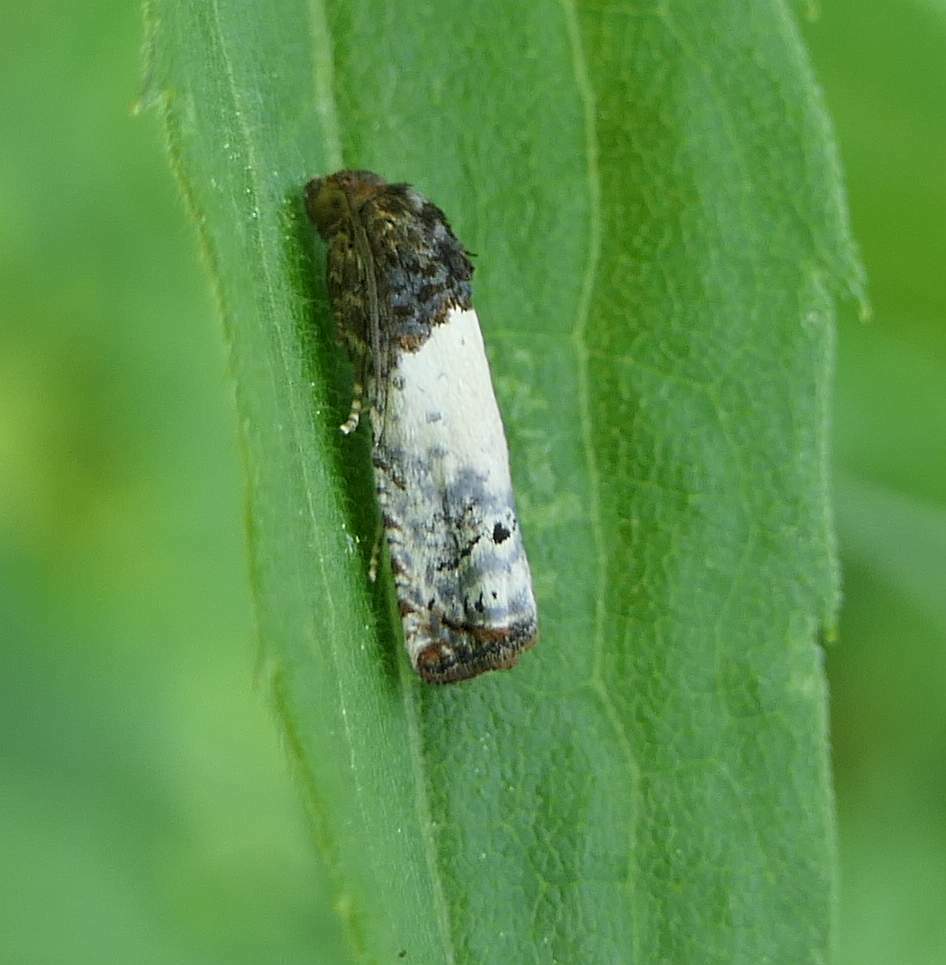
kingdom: Animalia
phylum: Arthropoda
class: Insecta
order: Lepidoptera
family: Tortricidae
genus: Epiblema
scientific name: Epiblema scudderiana
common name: Goldenrod gall moth
